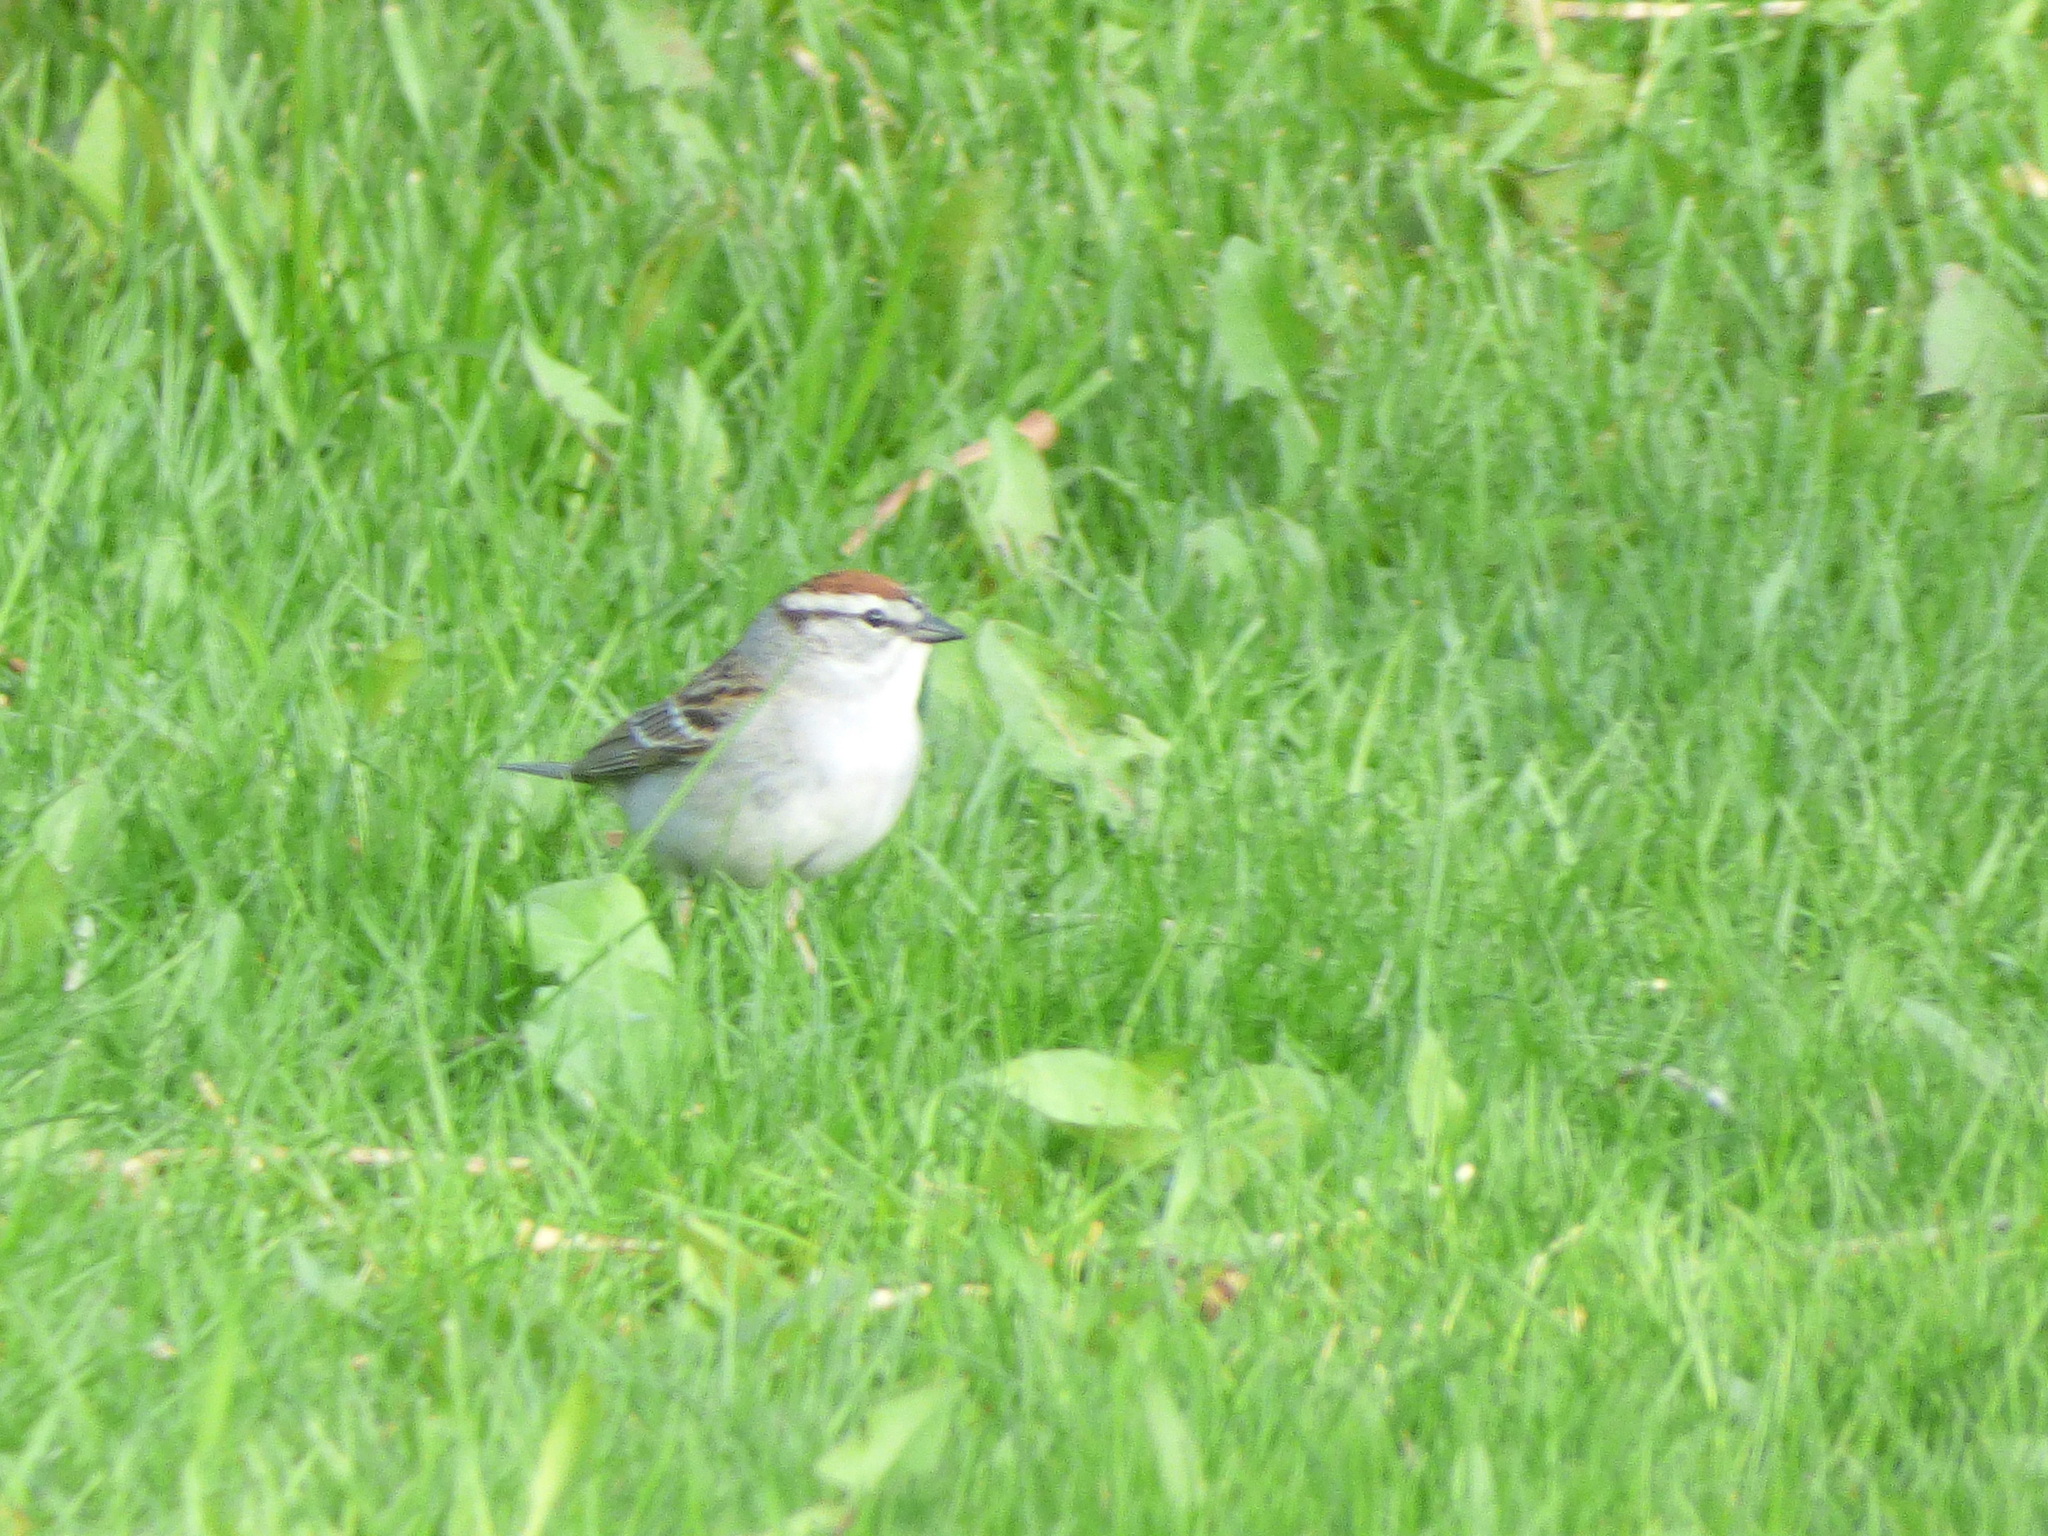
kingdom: Animalia
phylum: Chordata
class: Aves
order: Passeriformes
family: Passerellidae
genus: Spizella
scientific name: Spizella passerina
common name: Chipping sparrow
